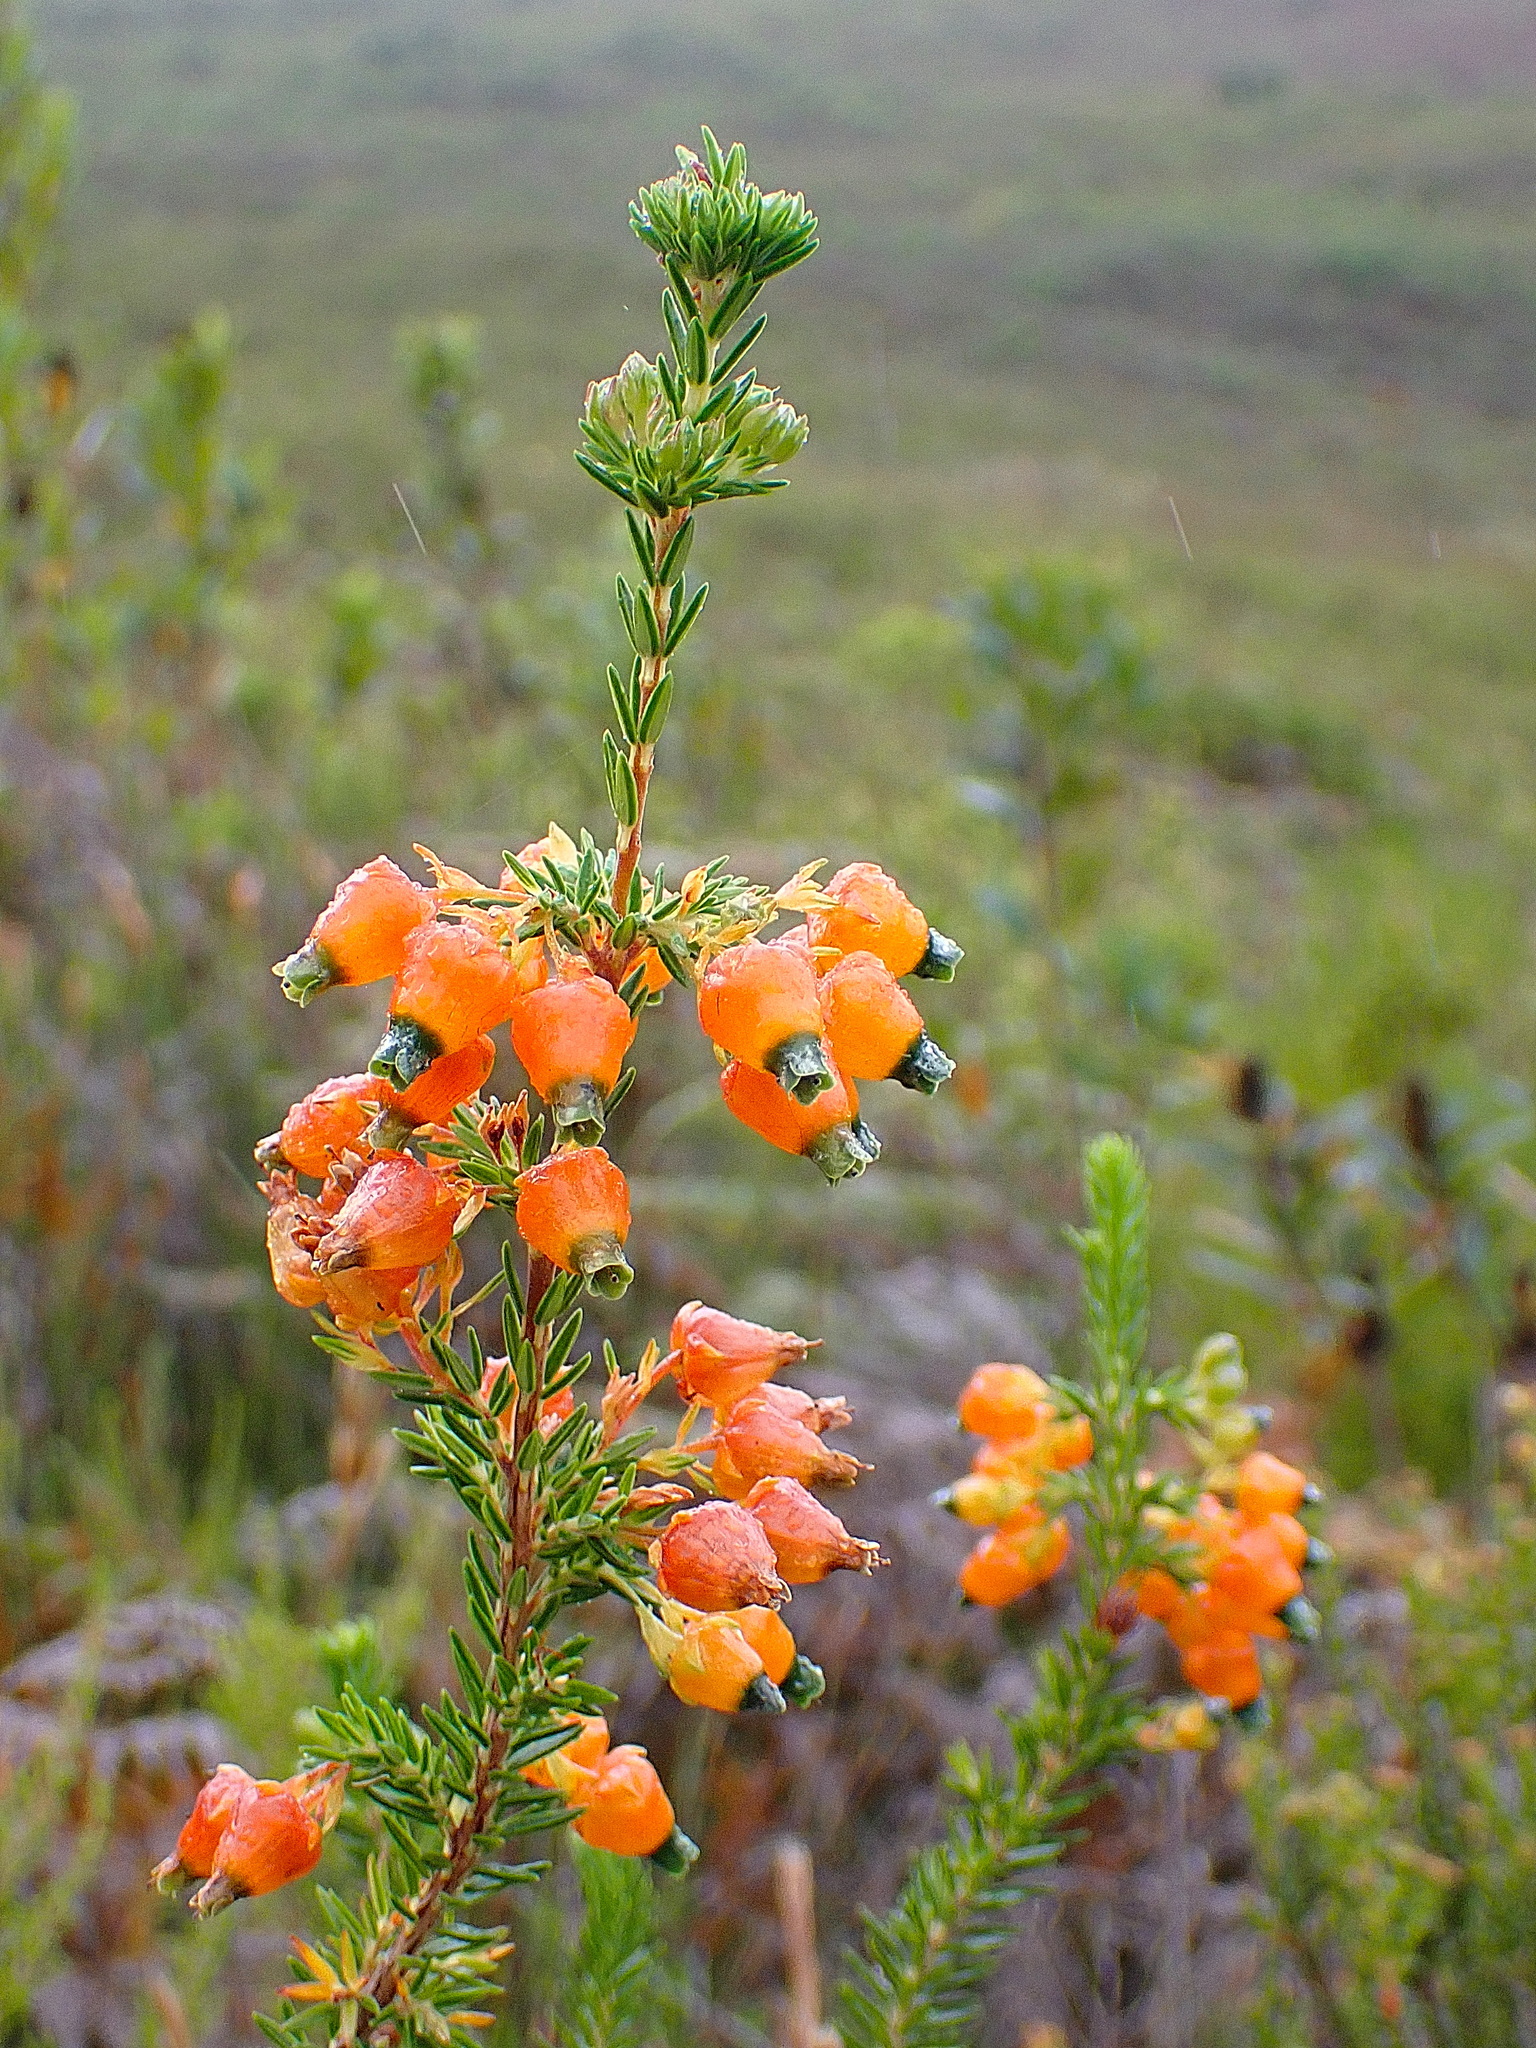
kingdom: Plantae
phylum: Tracheophyta
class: Magnoliopsida
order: Ericales
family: Ericaceae
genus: Erica
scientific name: Erica blenna
